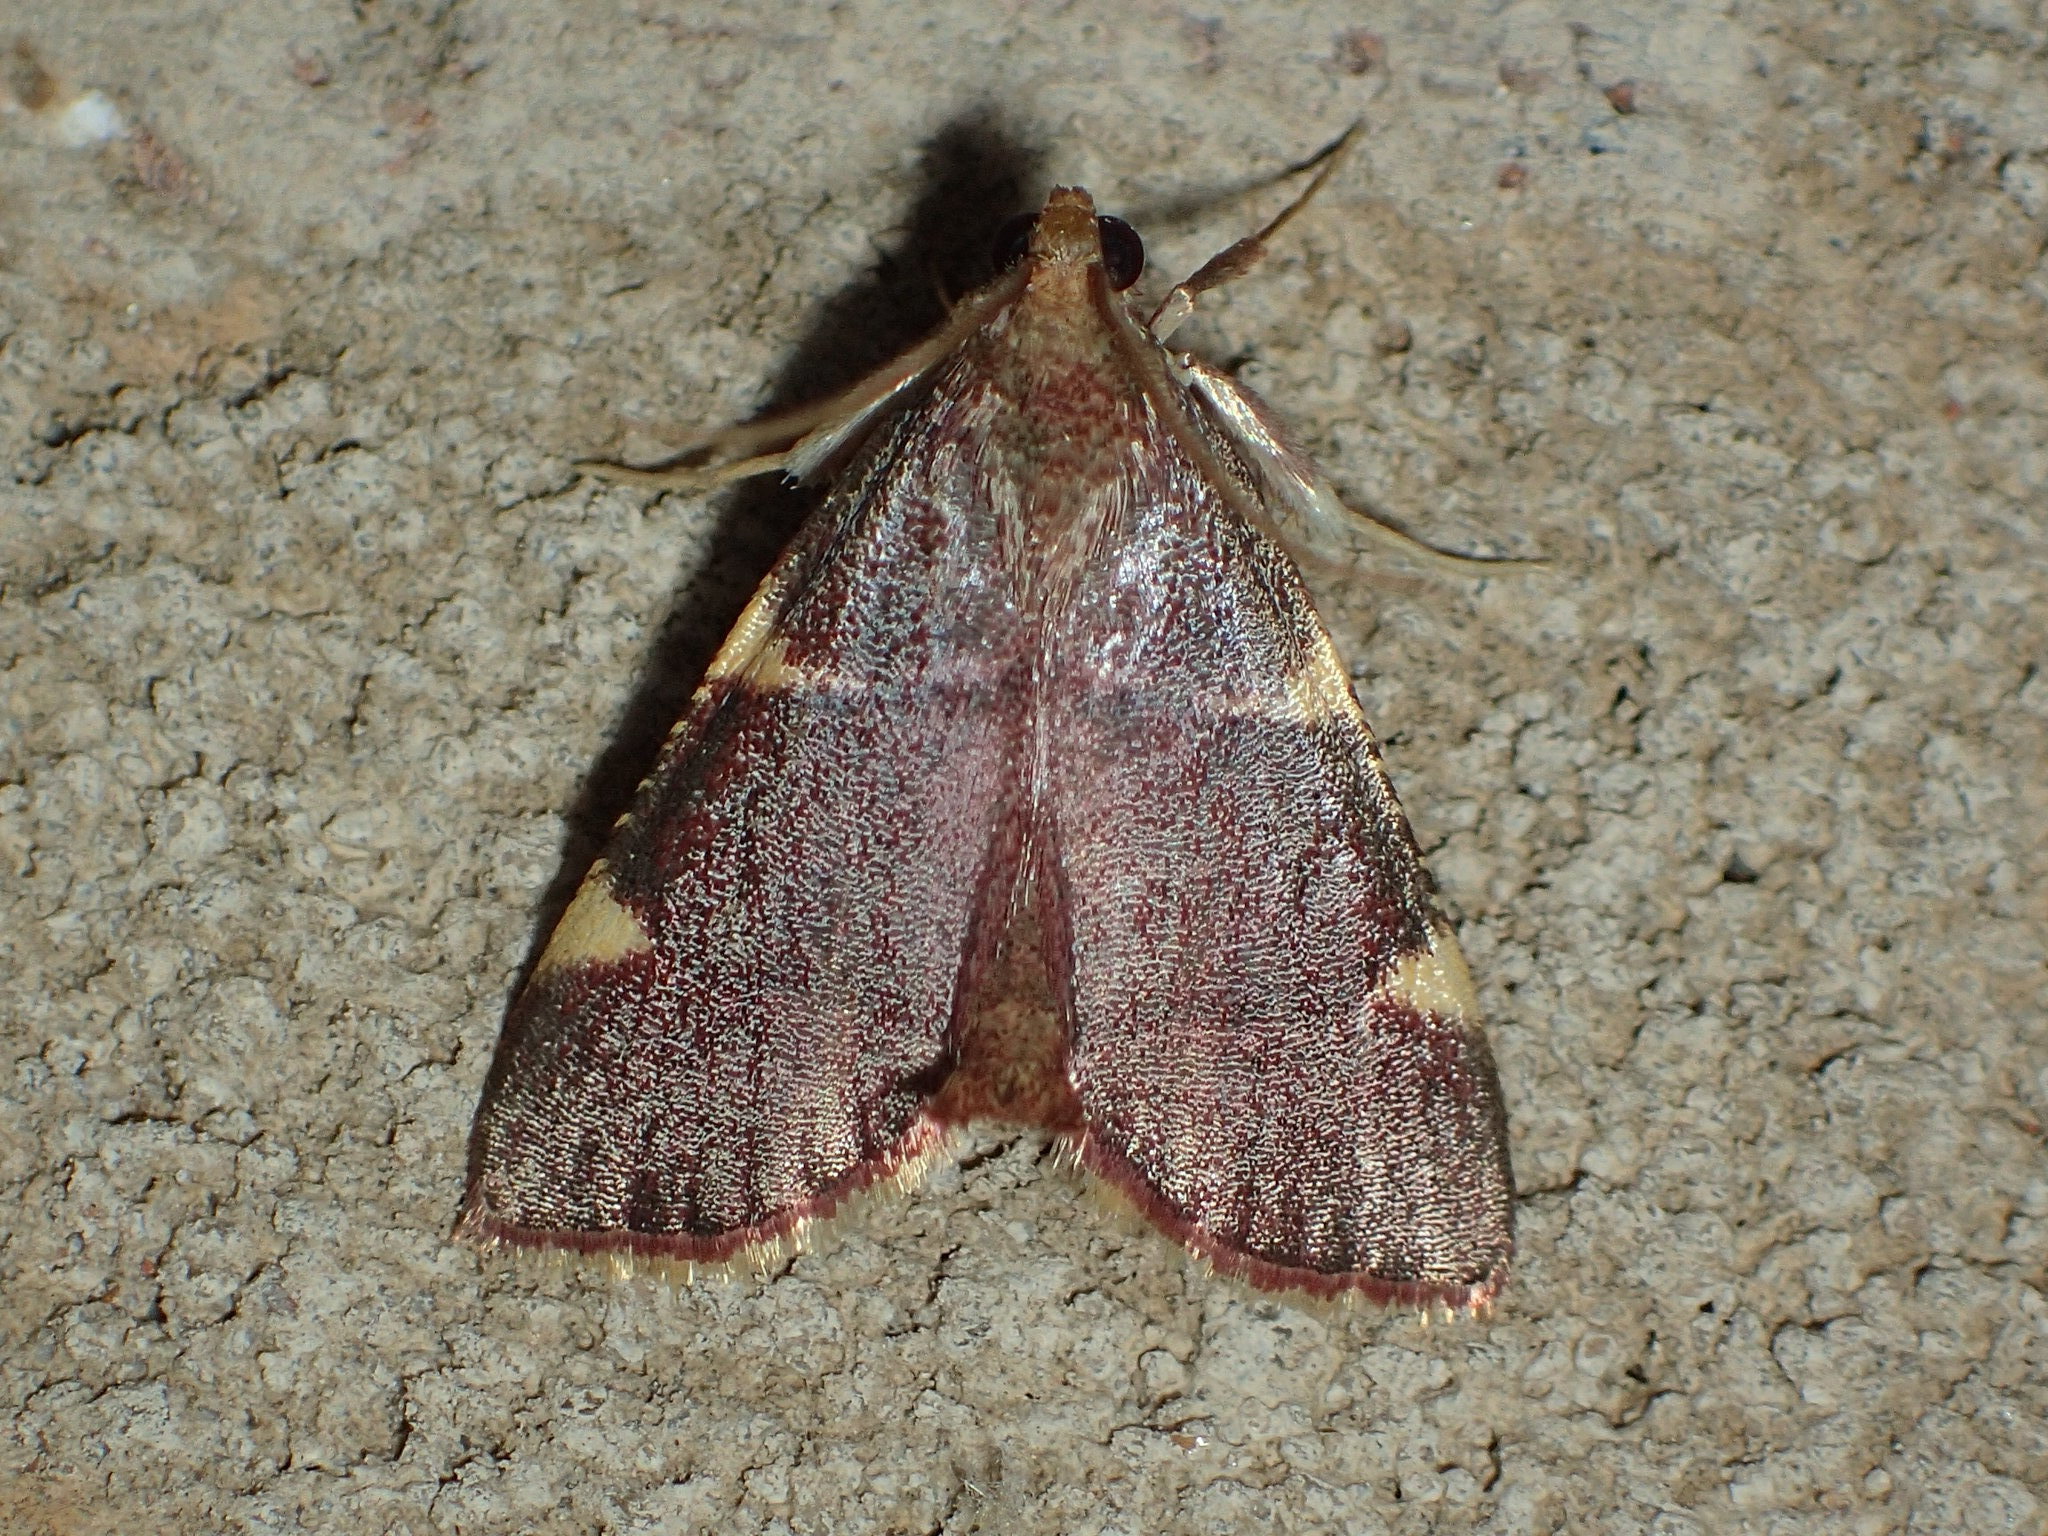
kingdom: Animalia
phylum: Arthropoda
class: Insecta
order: Lepidoptera
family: Pyralidae
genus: Hypsopygia
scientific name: Hypsopygia olinalis
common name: Yellow-fringed dolichomia moth
